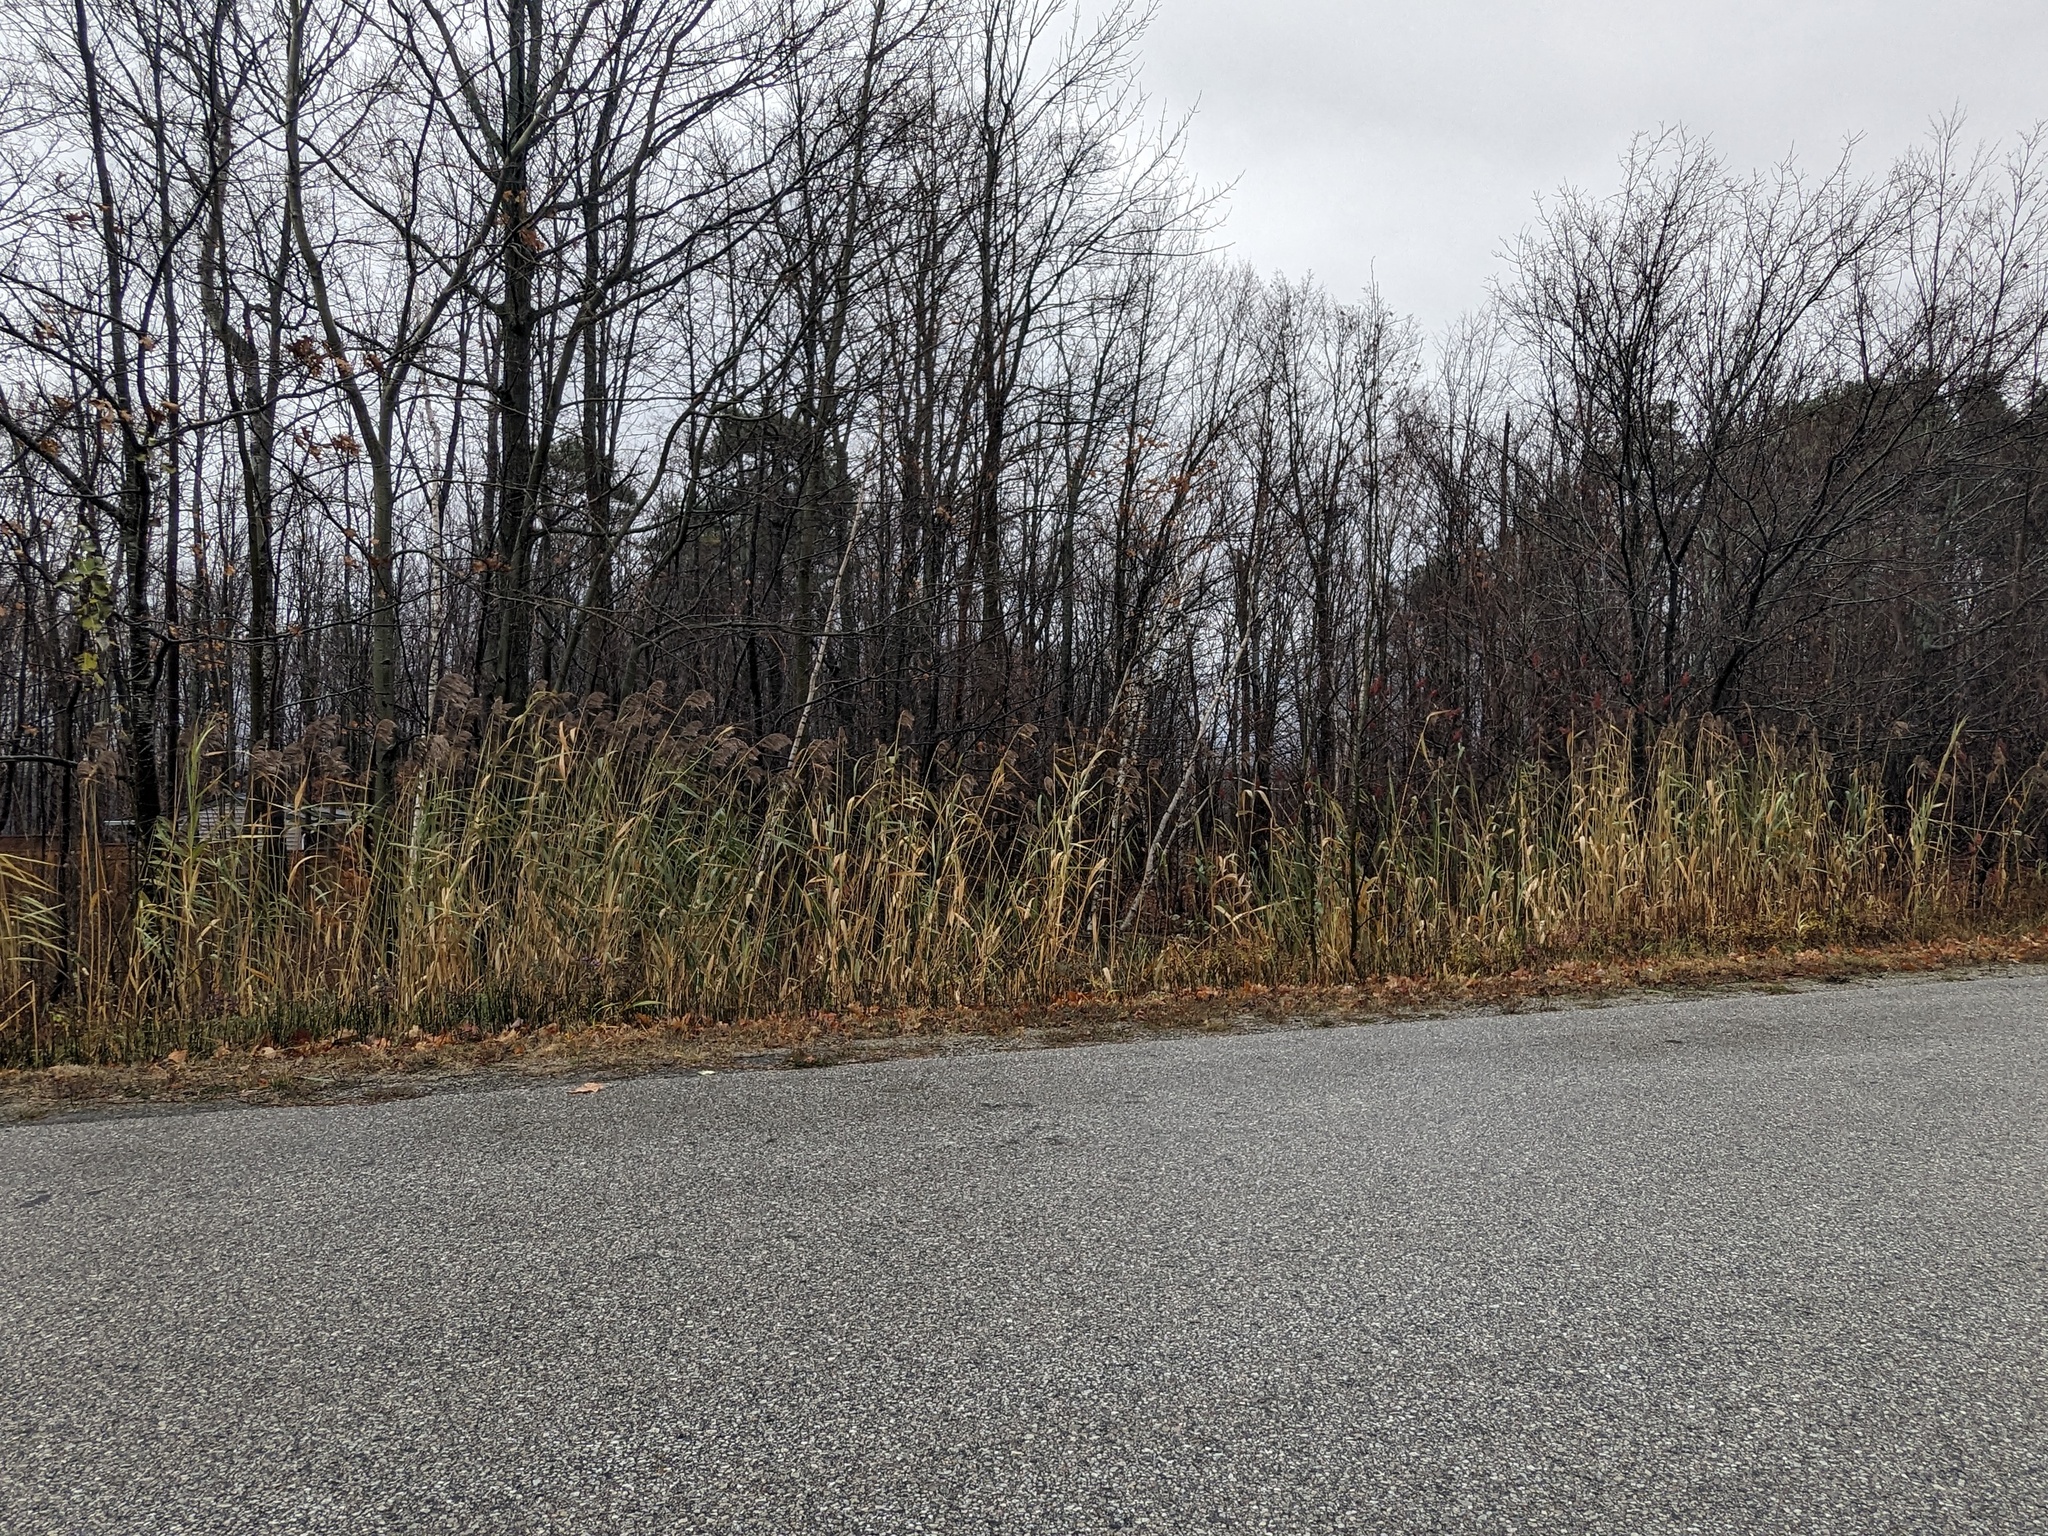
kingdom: Plantae
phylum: Tracheophyta
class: Liliopsida
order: Poales
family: Poaceae
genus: Phragmites
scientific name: Phragmites australis
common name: Common reed
